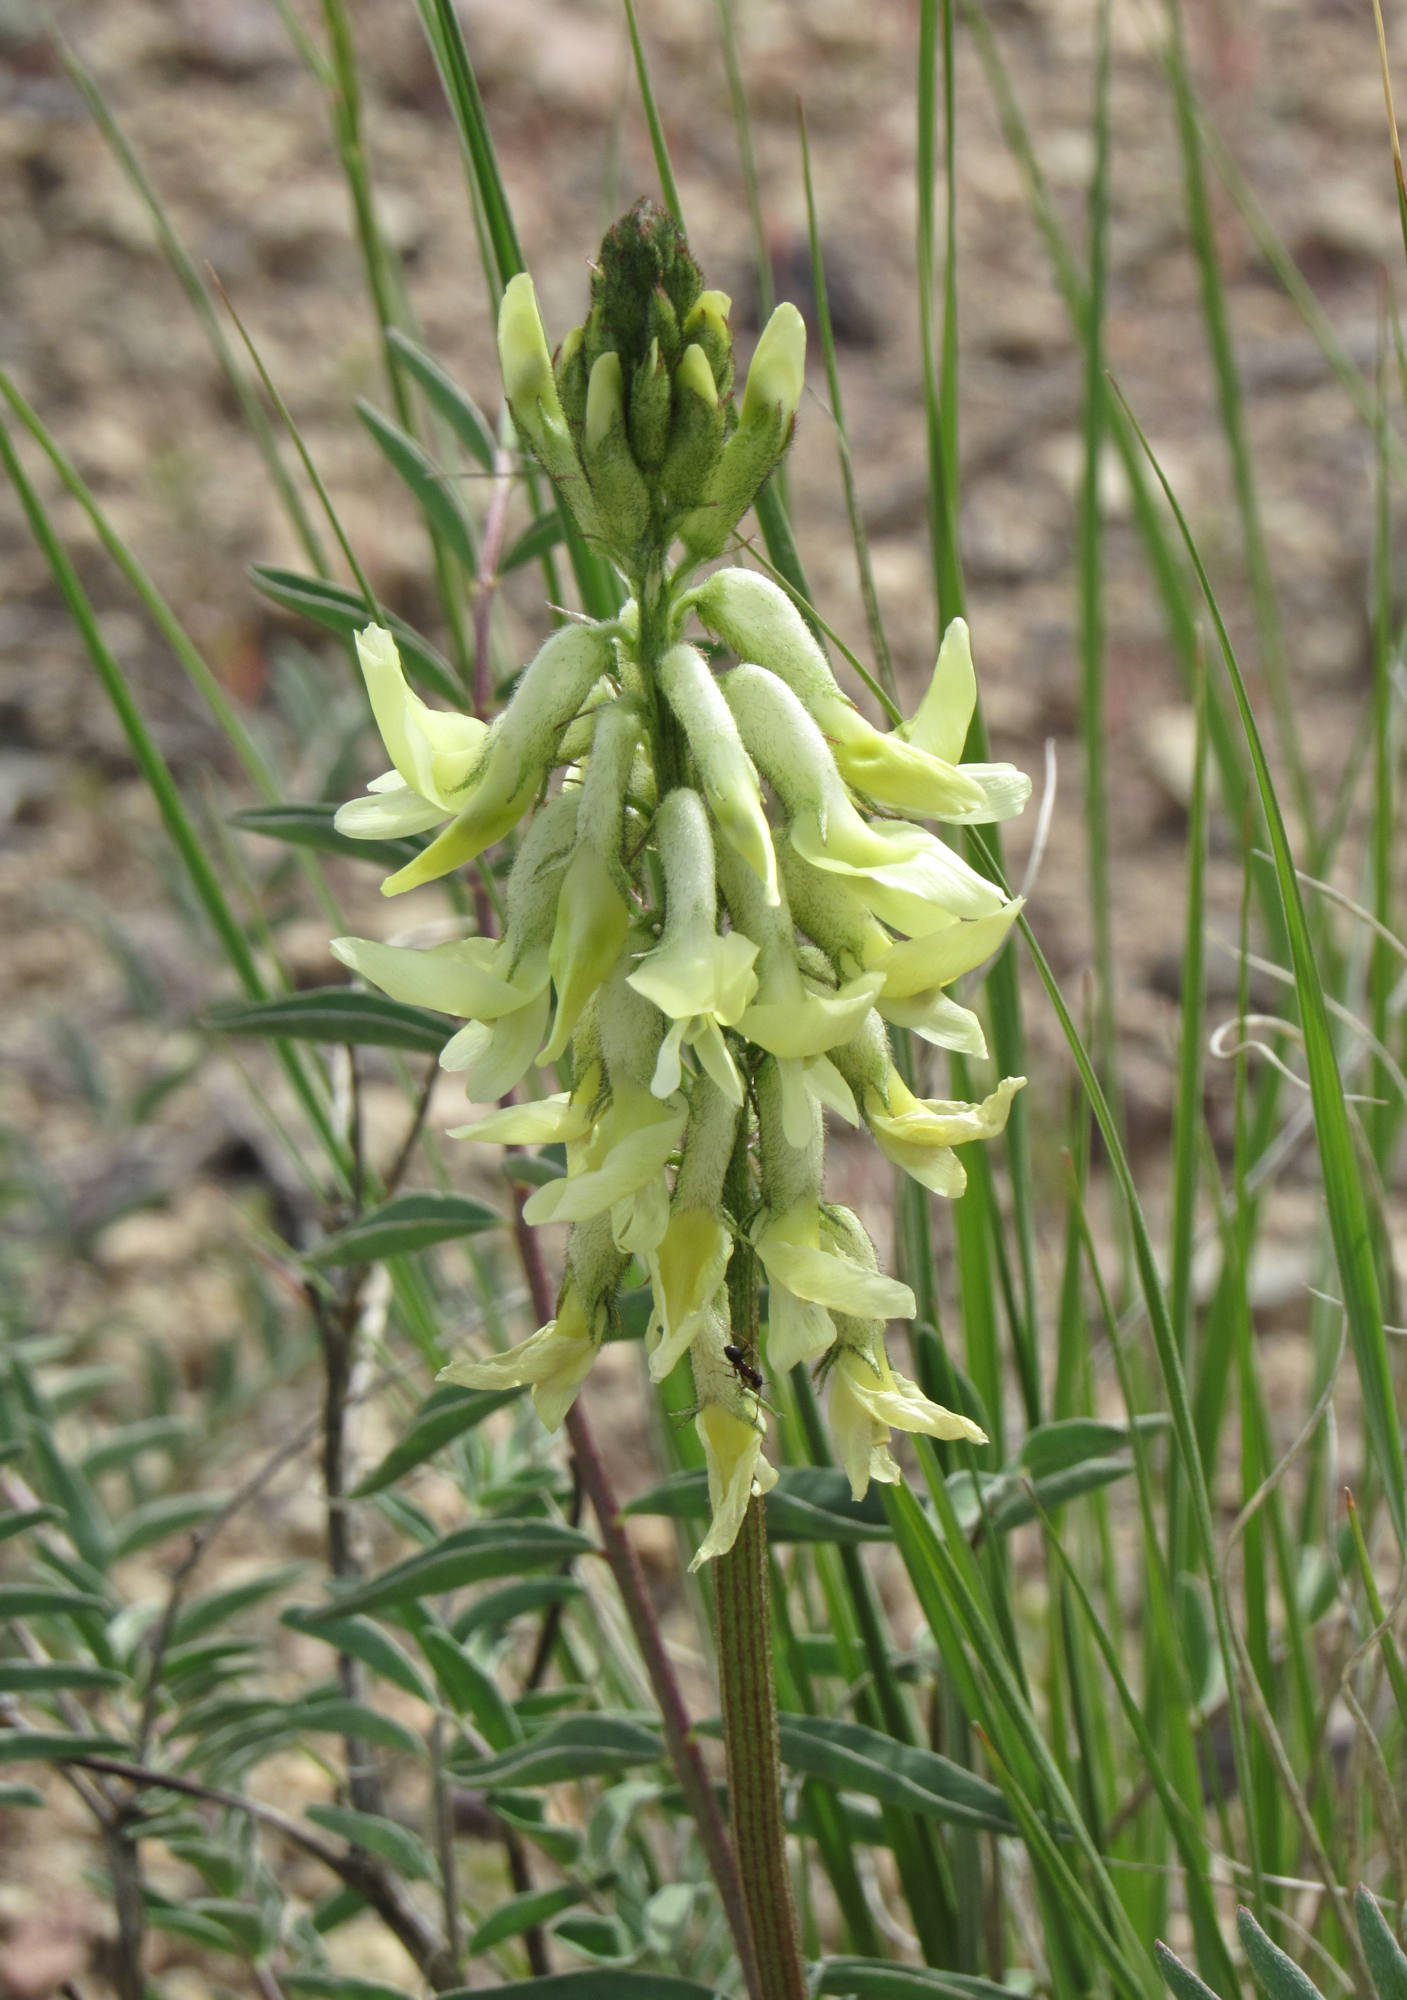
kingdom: Plantae
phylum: Tracheophyta
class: Magnoliopsida
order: Fabales
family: Fabaceae
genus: Astragalus
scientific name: Astragalus atropubescens
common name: Kelsey milk-vetch
